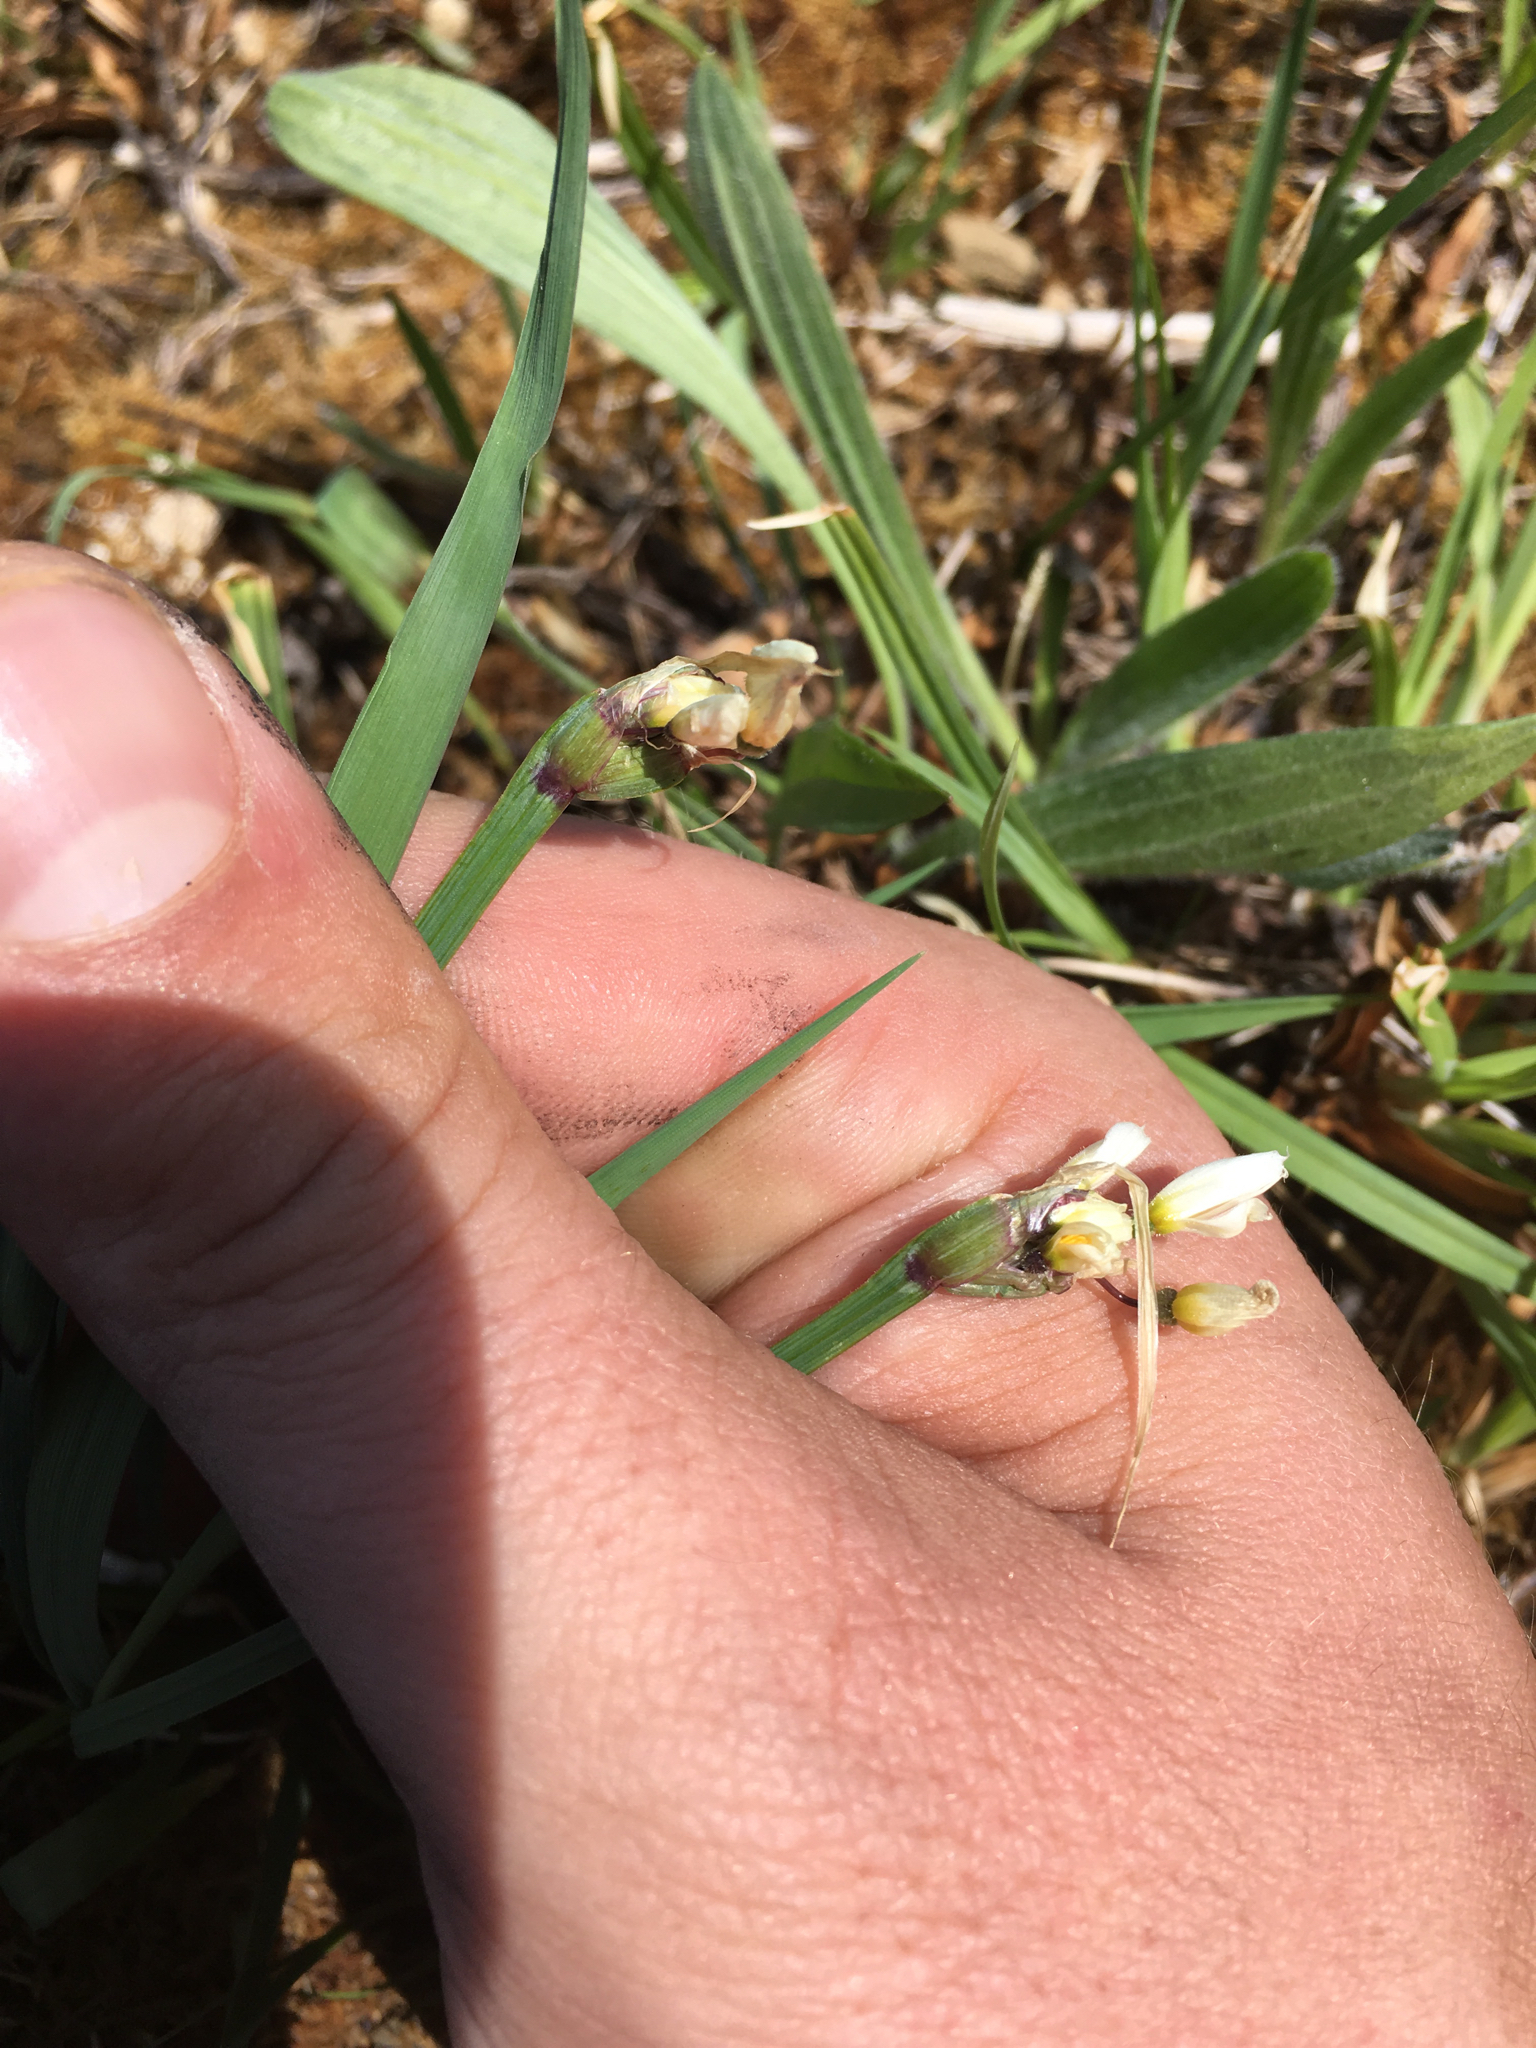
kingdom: Plantae
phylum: Tracheophyta
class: Liliopsida
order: Asparagales
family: Iridaceae
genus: Sisyrinchium
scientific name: Sisyrinchium albidum
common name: Pale blue-eyed-grass
